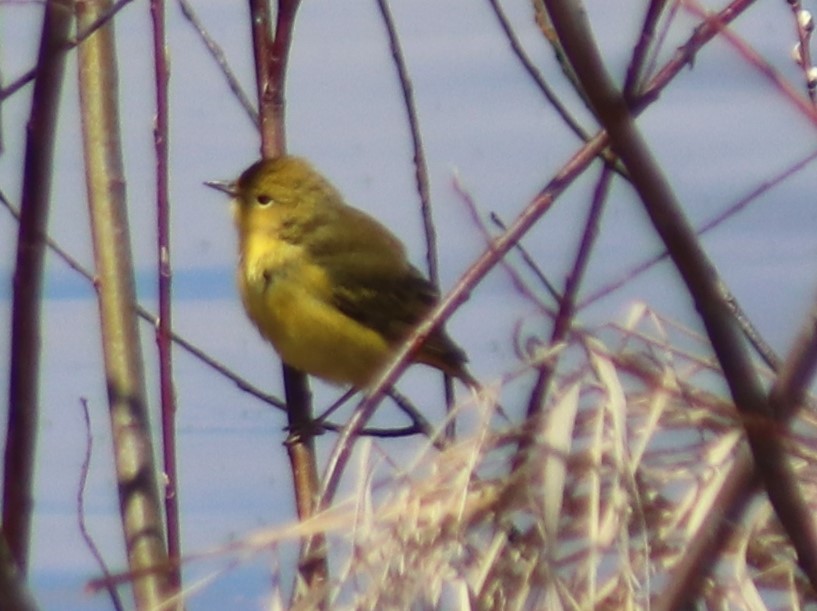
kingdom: Animalia
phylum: Chordata
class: Aves
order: Passeriformes
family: Parulidae
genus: Setophaga
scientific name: Setophaga petechia
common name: Yellow warbler
